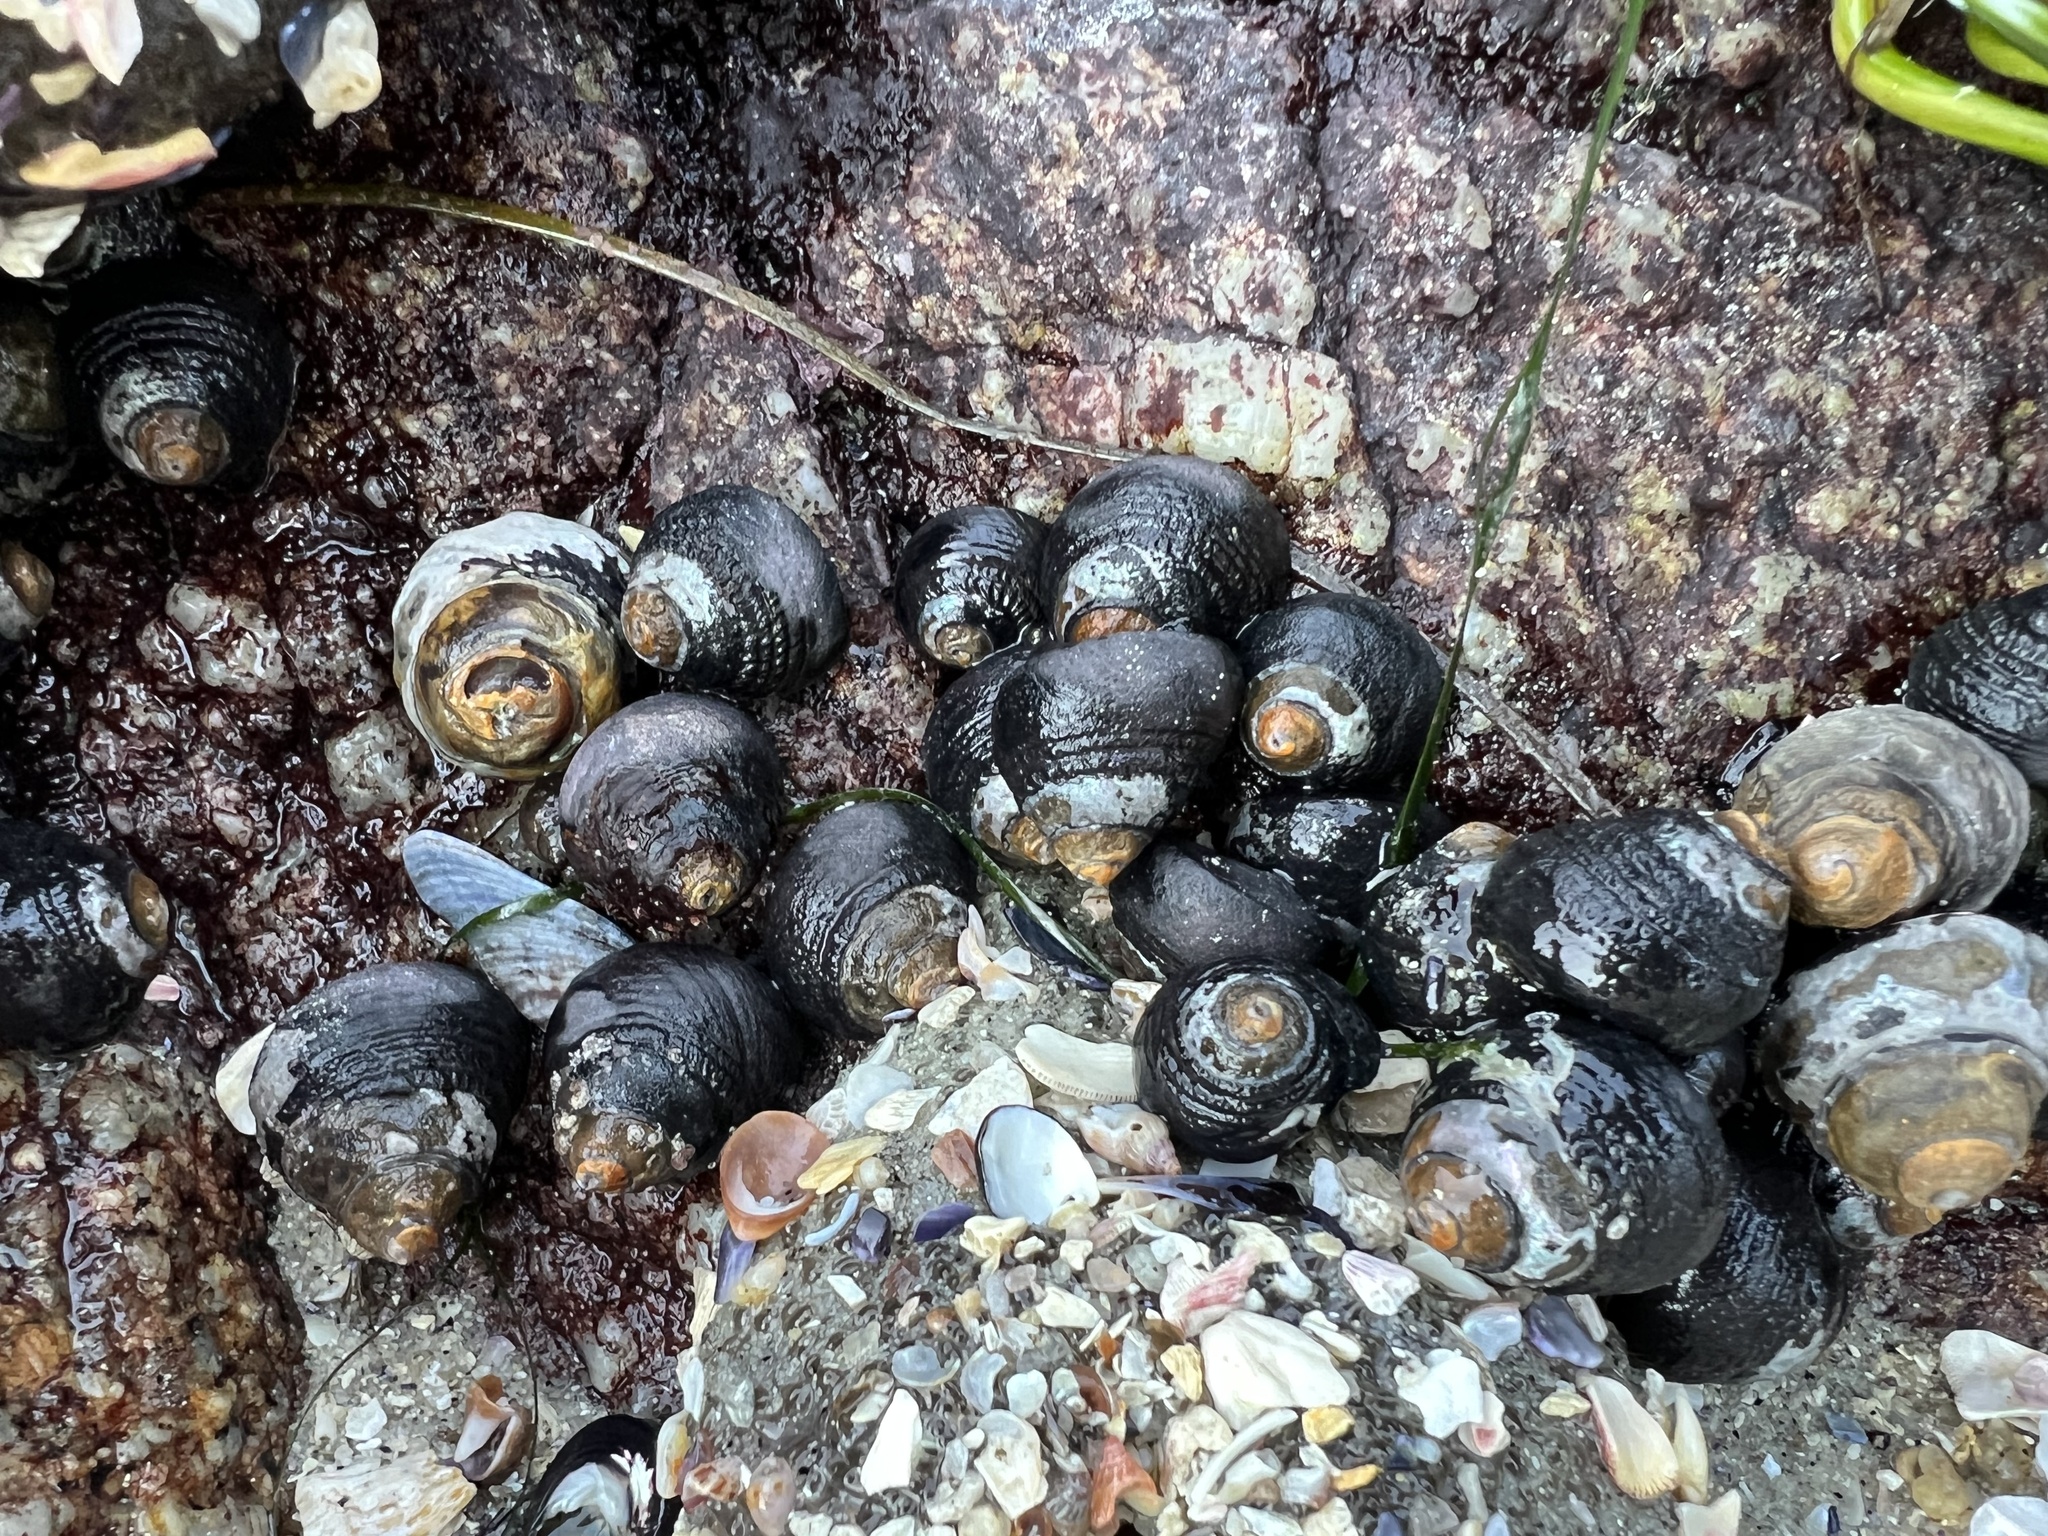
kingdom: Animalia
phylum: Mollusca
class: Gastropoda
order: Trochida
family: Tegulidae
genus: Tegula
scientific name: Tegula funebralis
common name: Black tegula
